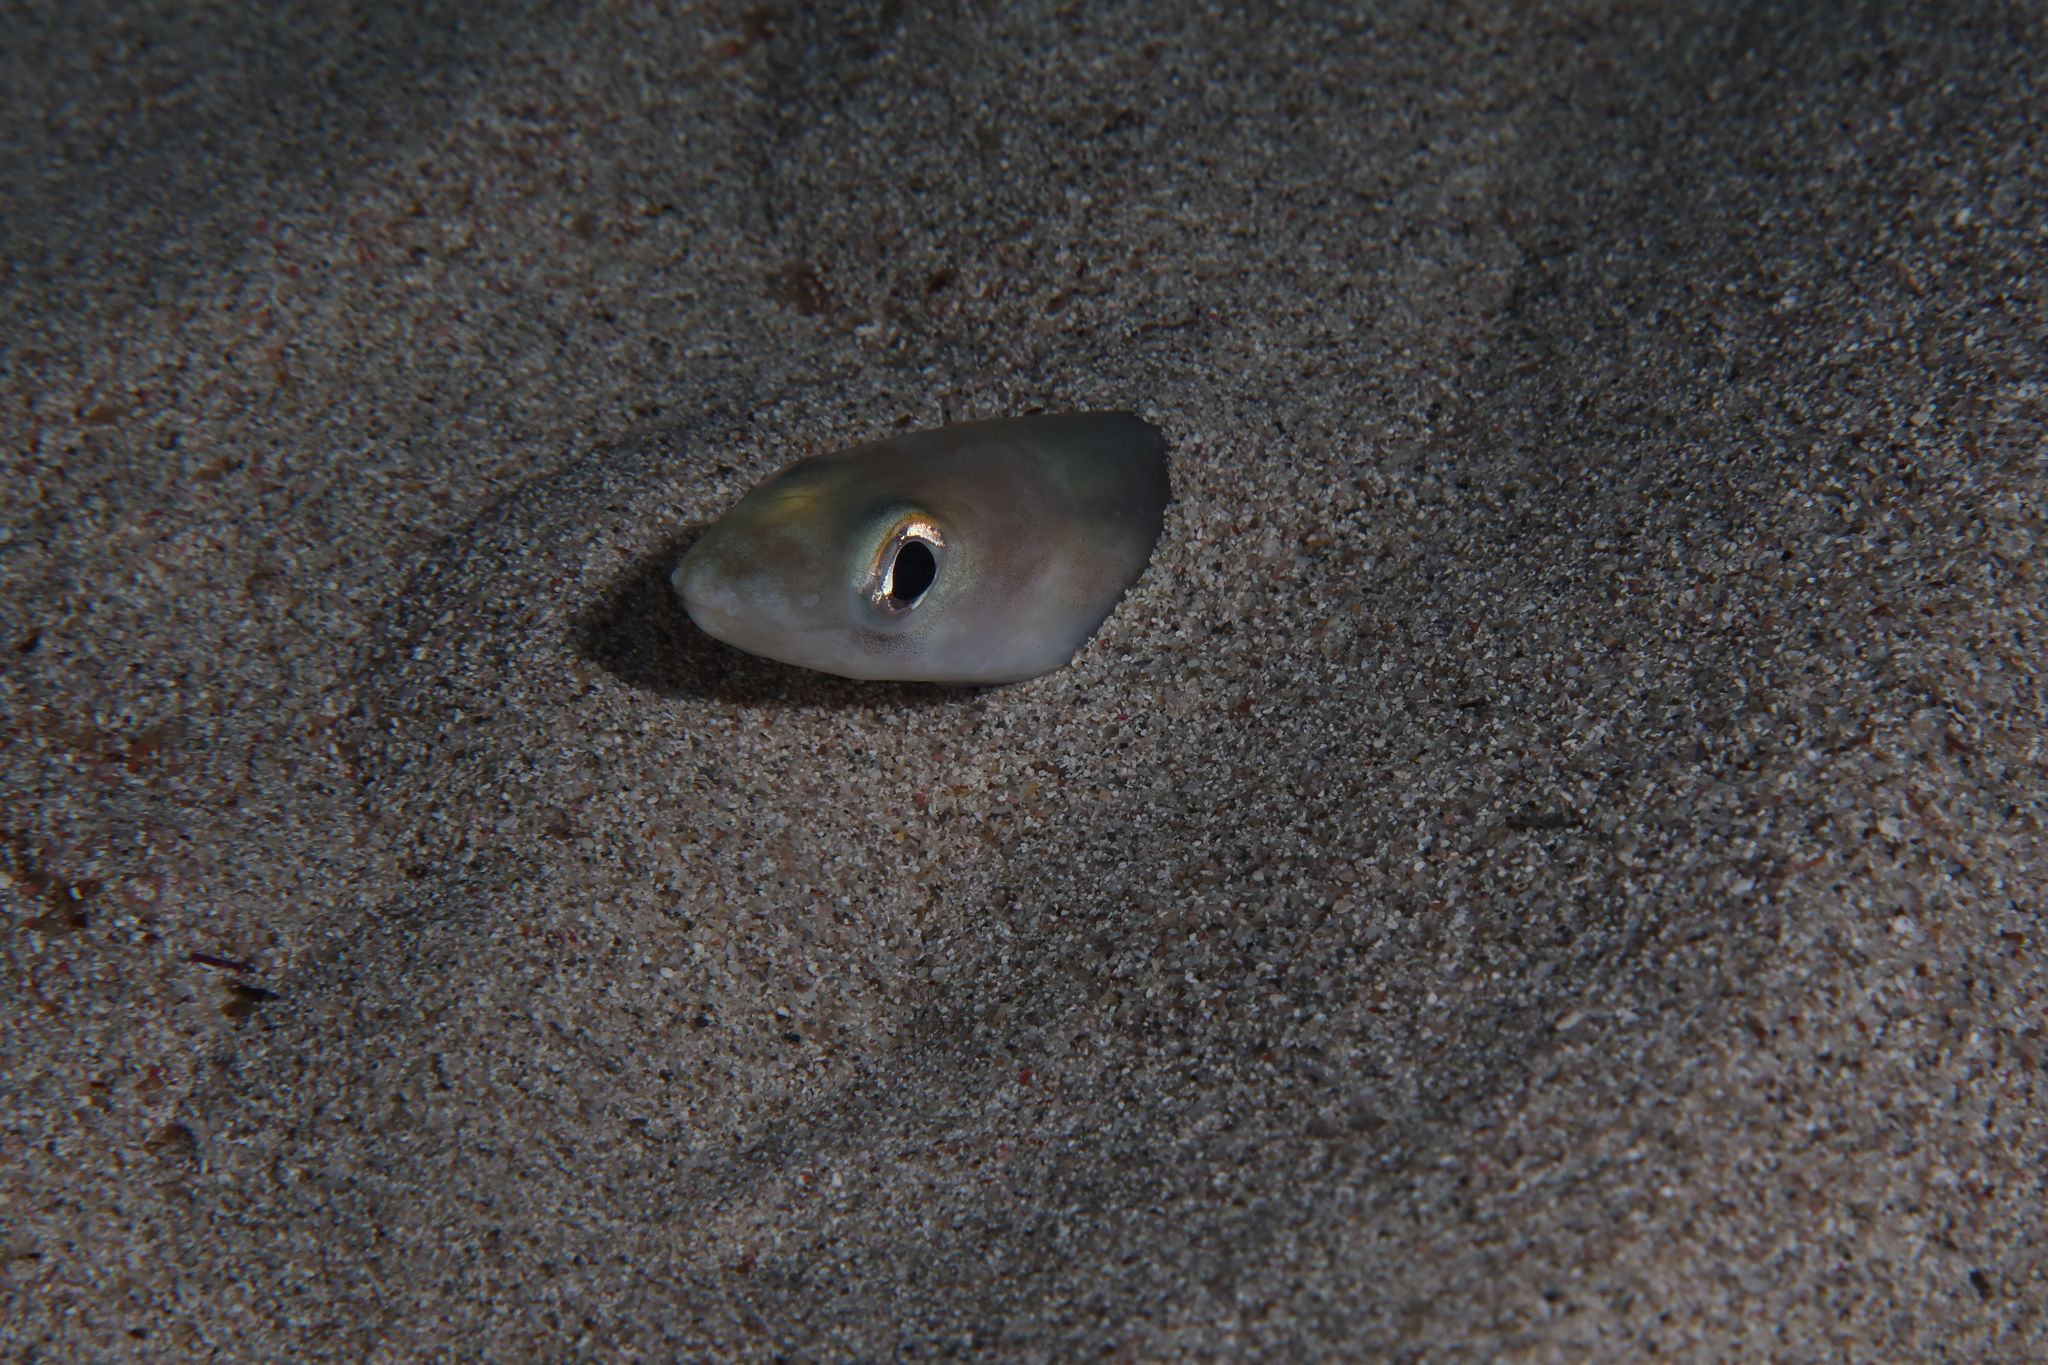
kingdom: Animalia
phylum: Chordata
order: Anguilliformes
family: Congridae
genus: Ariosoma
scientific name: Ariosoma balearicum
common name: Bandtooth conger
